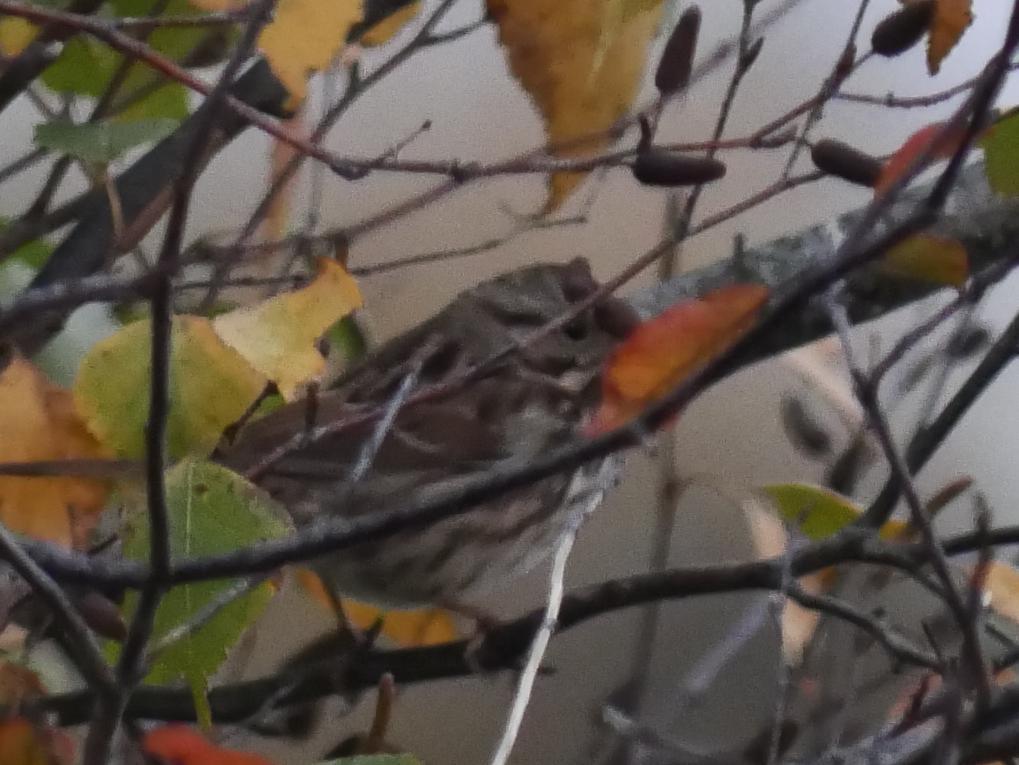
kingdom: Animalia
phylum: Chordata
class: Aves
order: Passeriformes
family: Passerellidae
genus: Melospiza
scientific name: Melospiza melodia
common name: Song sparrow
